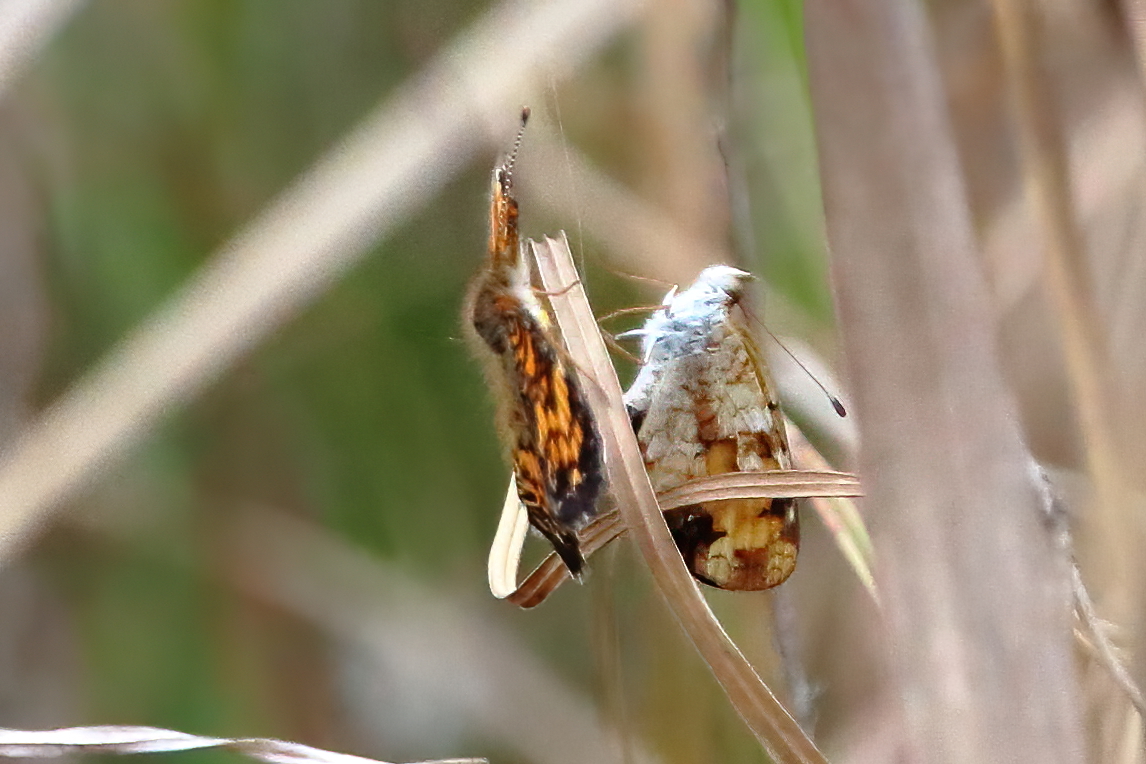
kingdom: Animalia
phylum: Arthropoda
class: Insecta
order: Lepidoptera
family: Nymphalidae
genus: Phyciodes
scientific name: Phyciodes tharos
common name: Pearl crescent
